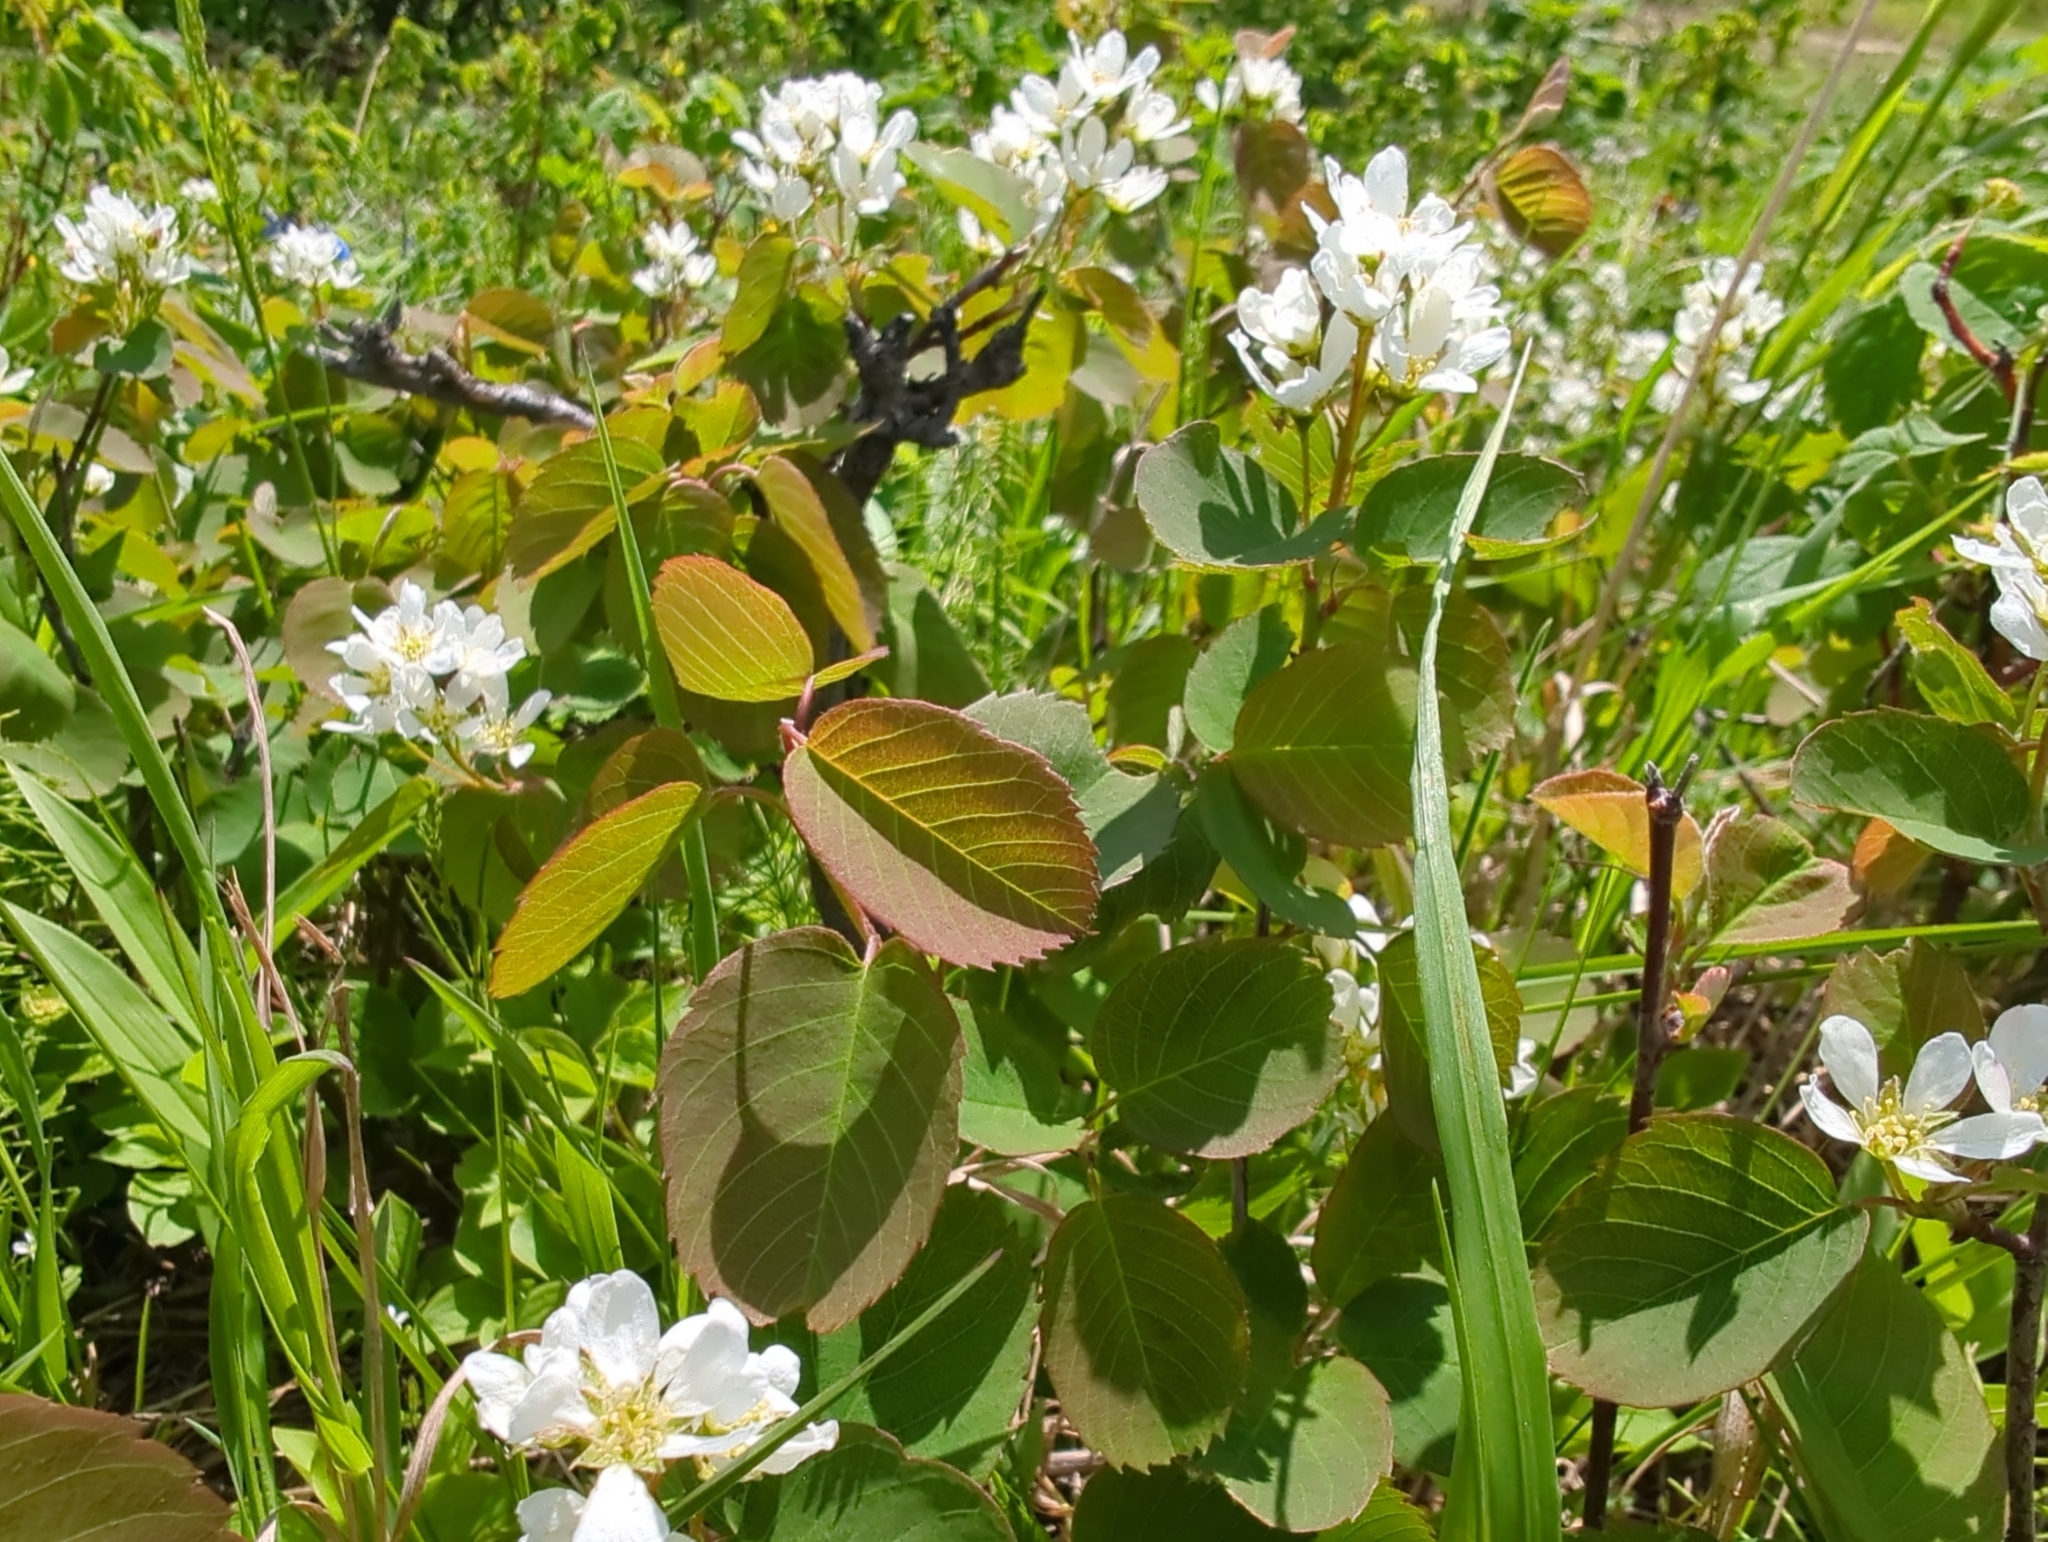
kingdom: Plantae
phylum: Tracheophyta
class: Magnoliopsida
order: Rosales
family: Rosaceae
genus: Amelanchier
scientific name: Amelanchier alnifolia
